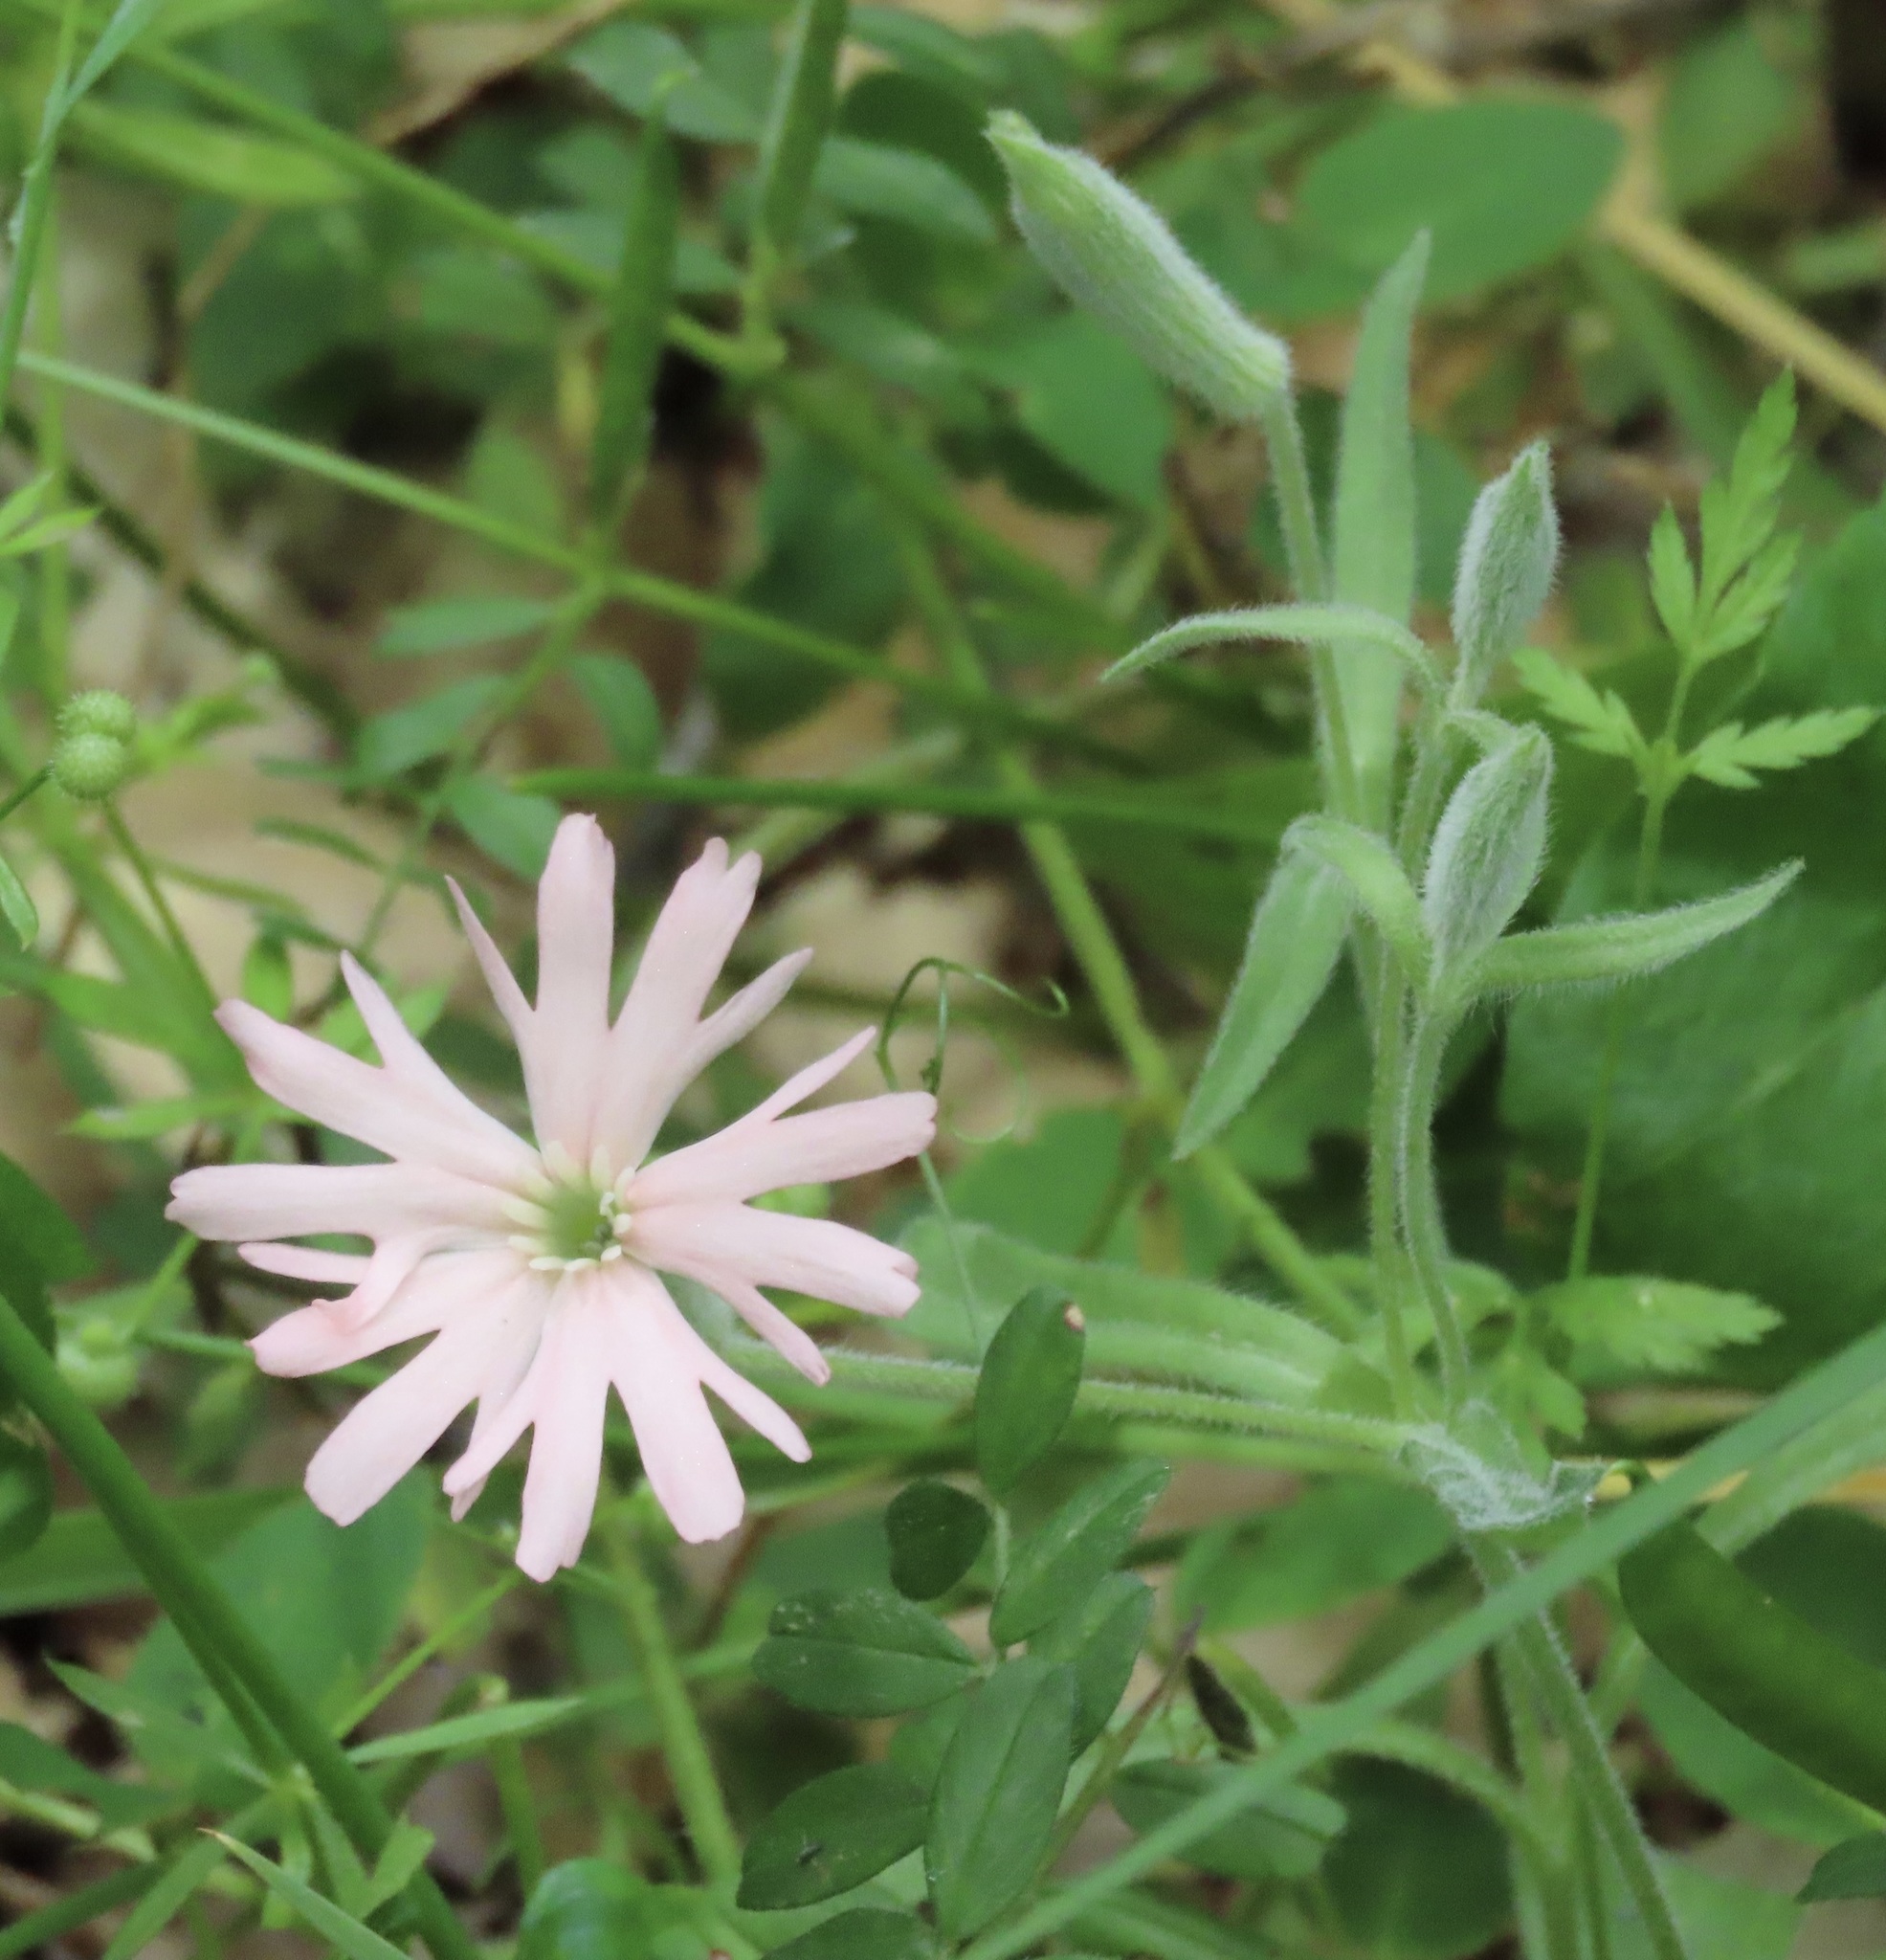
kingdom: Plantae
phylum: Tracheophyta
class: Magnoliopsida
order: Caryophyllales
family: Caryophyllaceae
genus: Silene
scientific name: Silene hookeri
